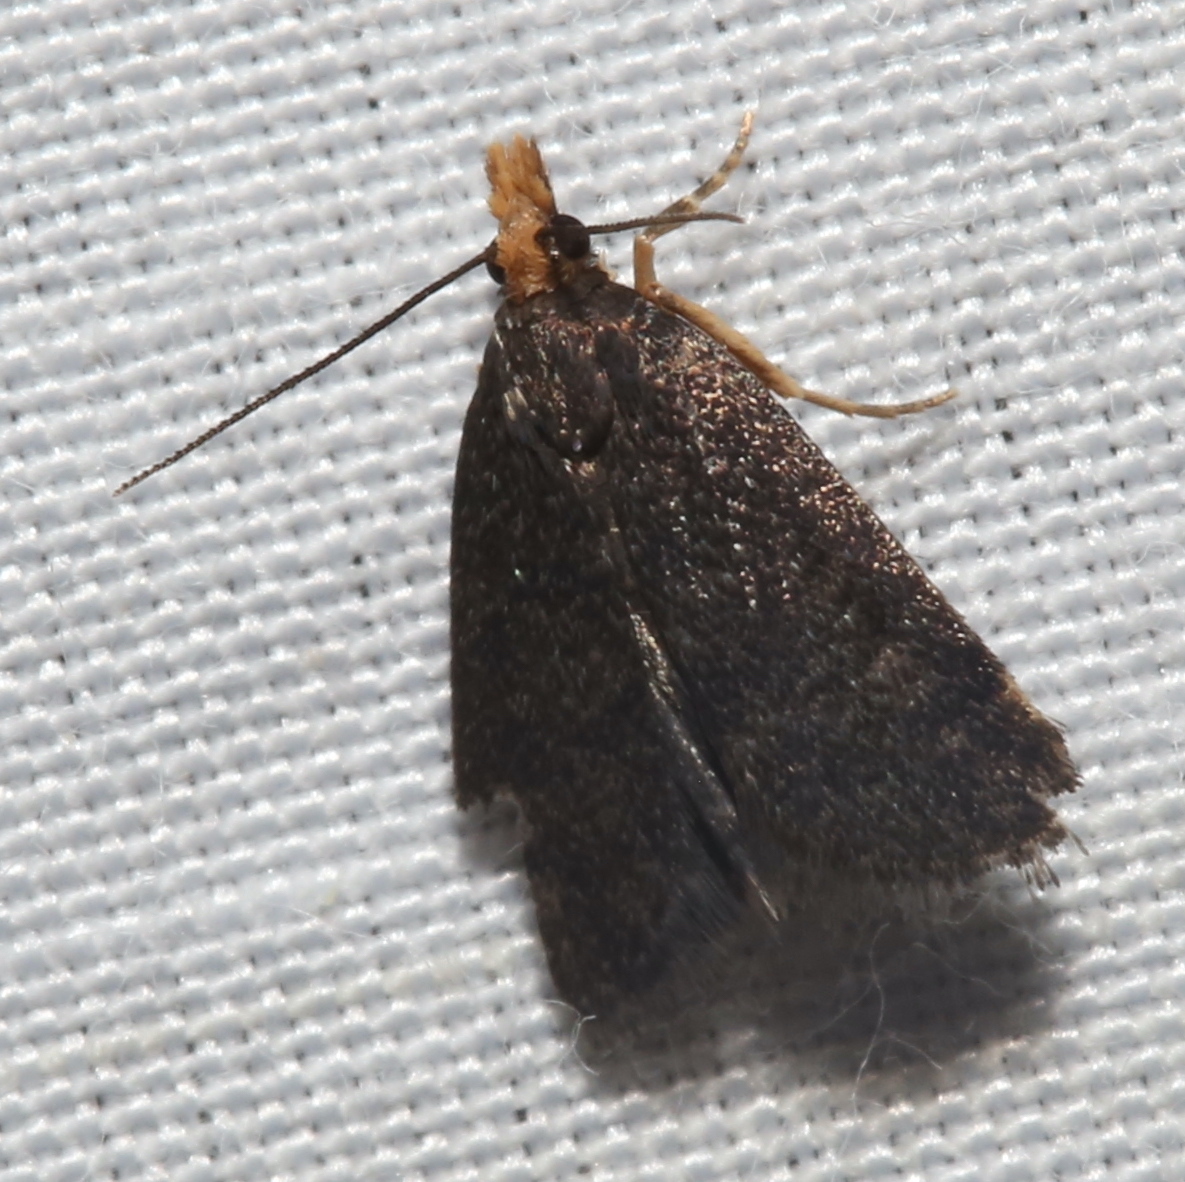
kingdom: Animalia
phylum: Arthropoda
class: Insecta
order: Lepidoptera
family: Crambidae
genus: Pyrausta
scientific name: Pyrausta merrickalis
